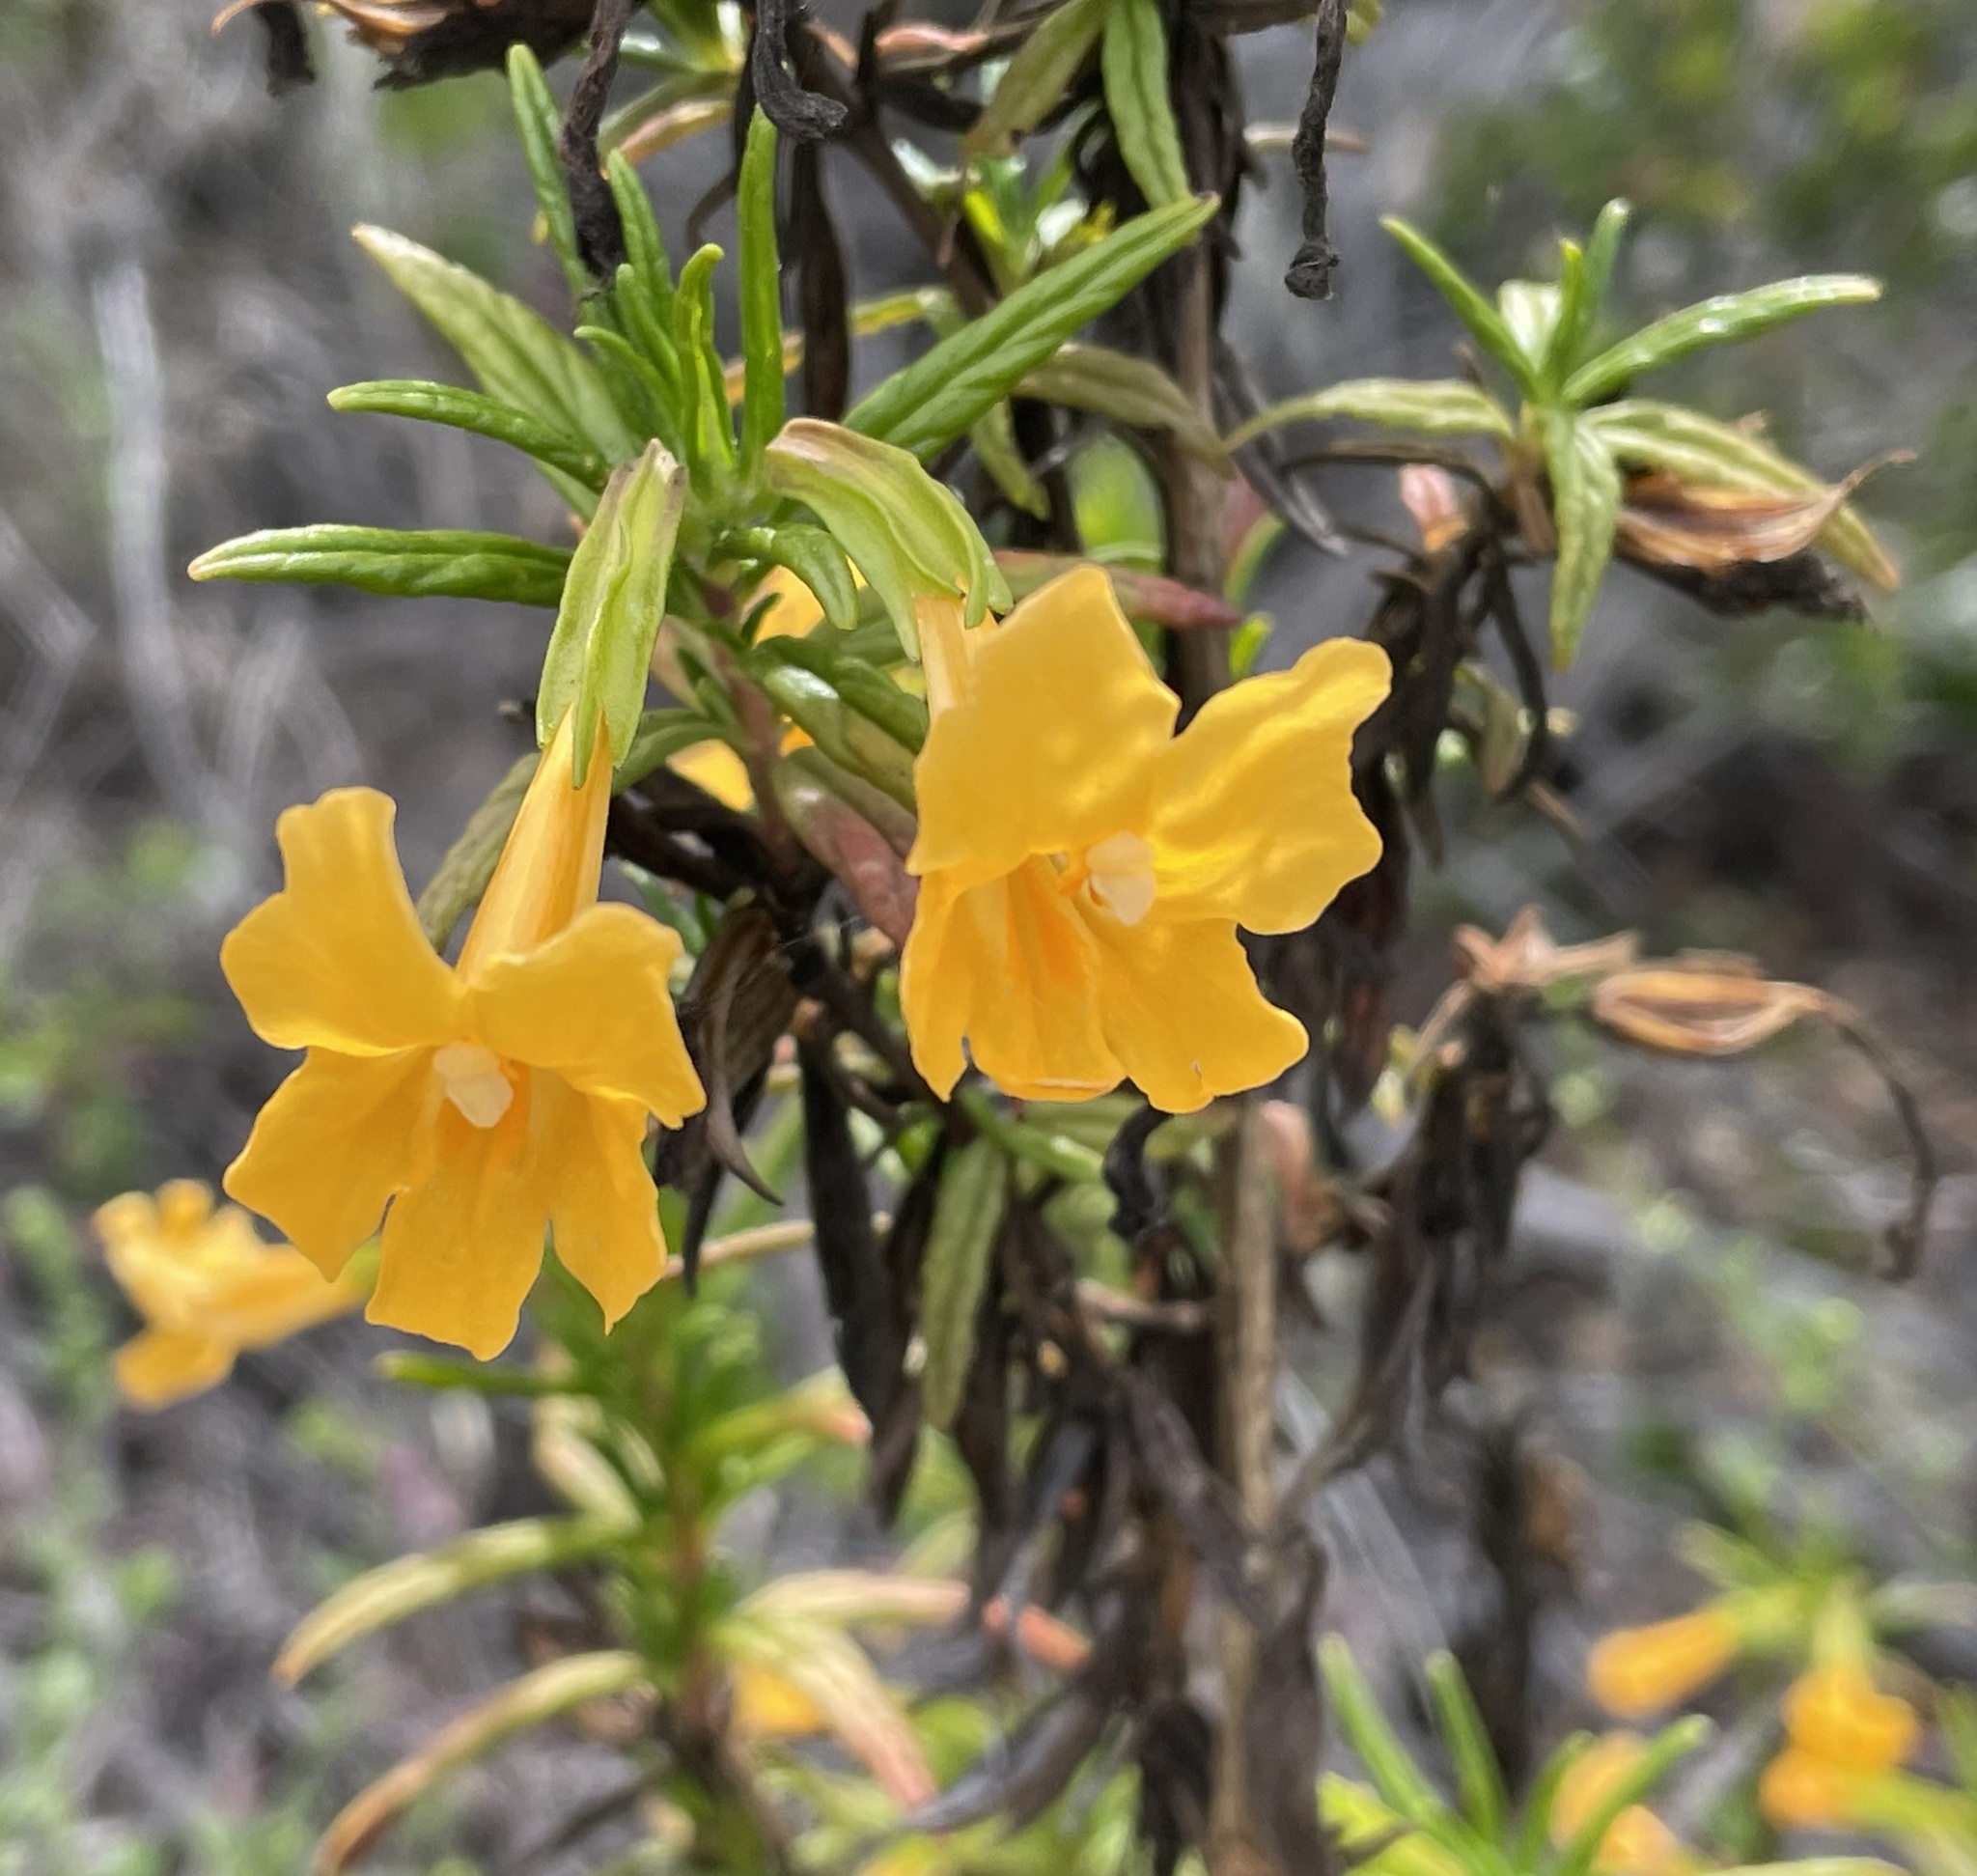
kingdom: Plantae
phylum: Tracheophyta
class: Magnoliopsida
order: Lamiales
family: Phrymaceae
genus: Diplacus
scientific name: Diplacus aurantiacus
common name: Bush monkey-flower
